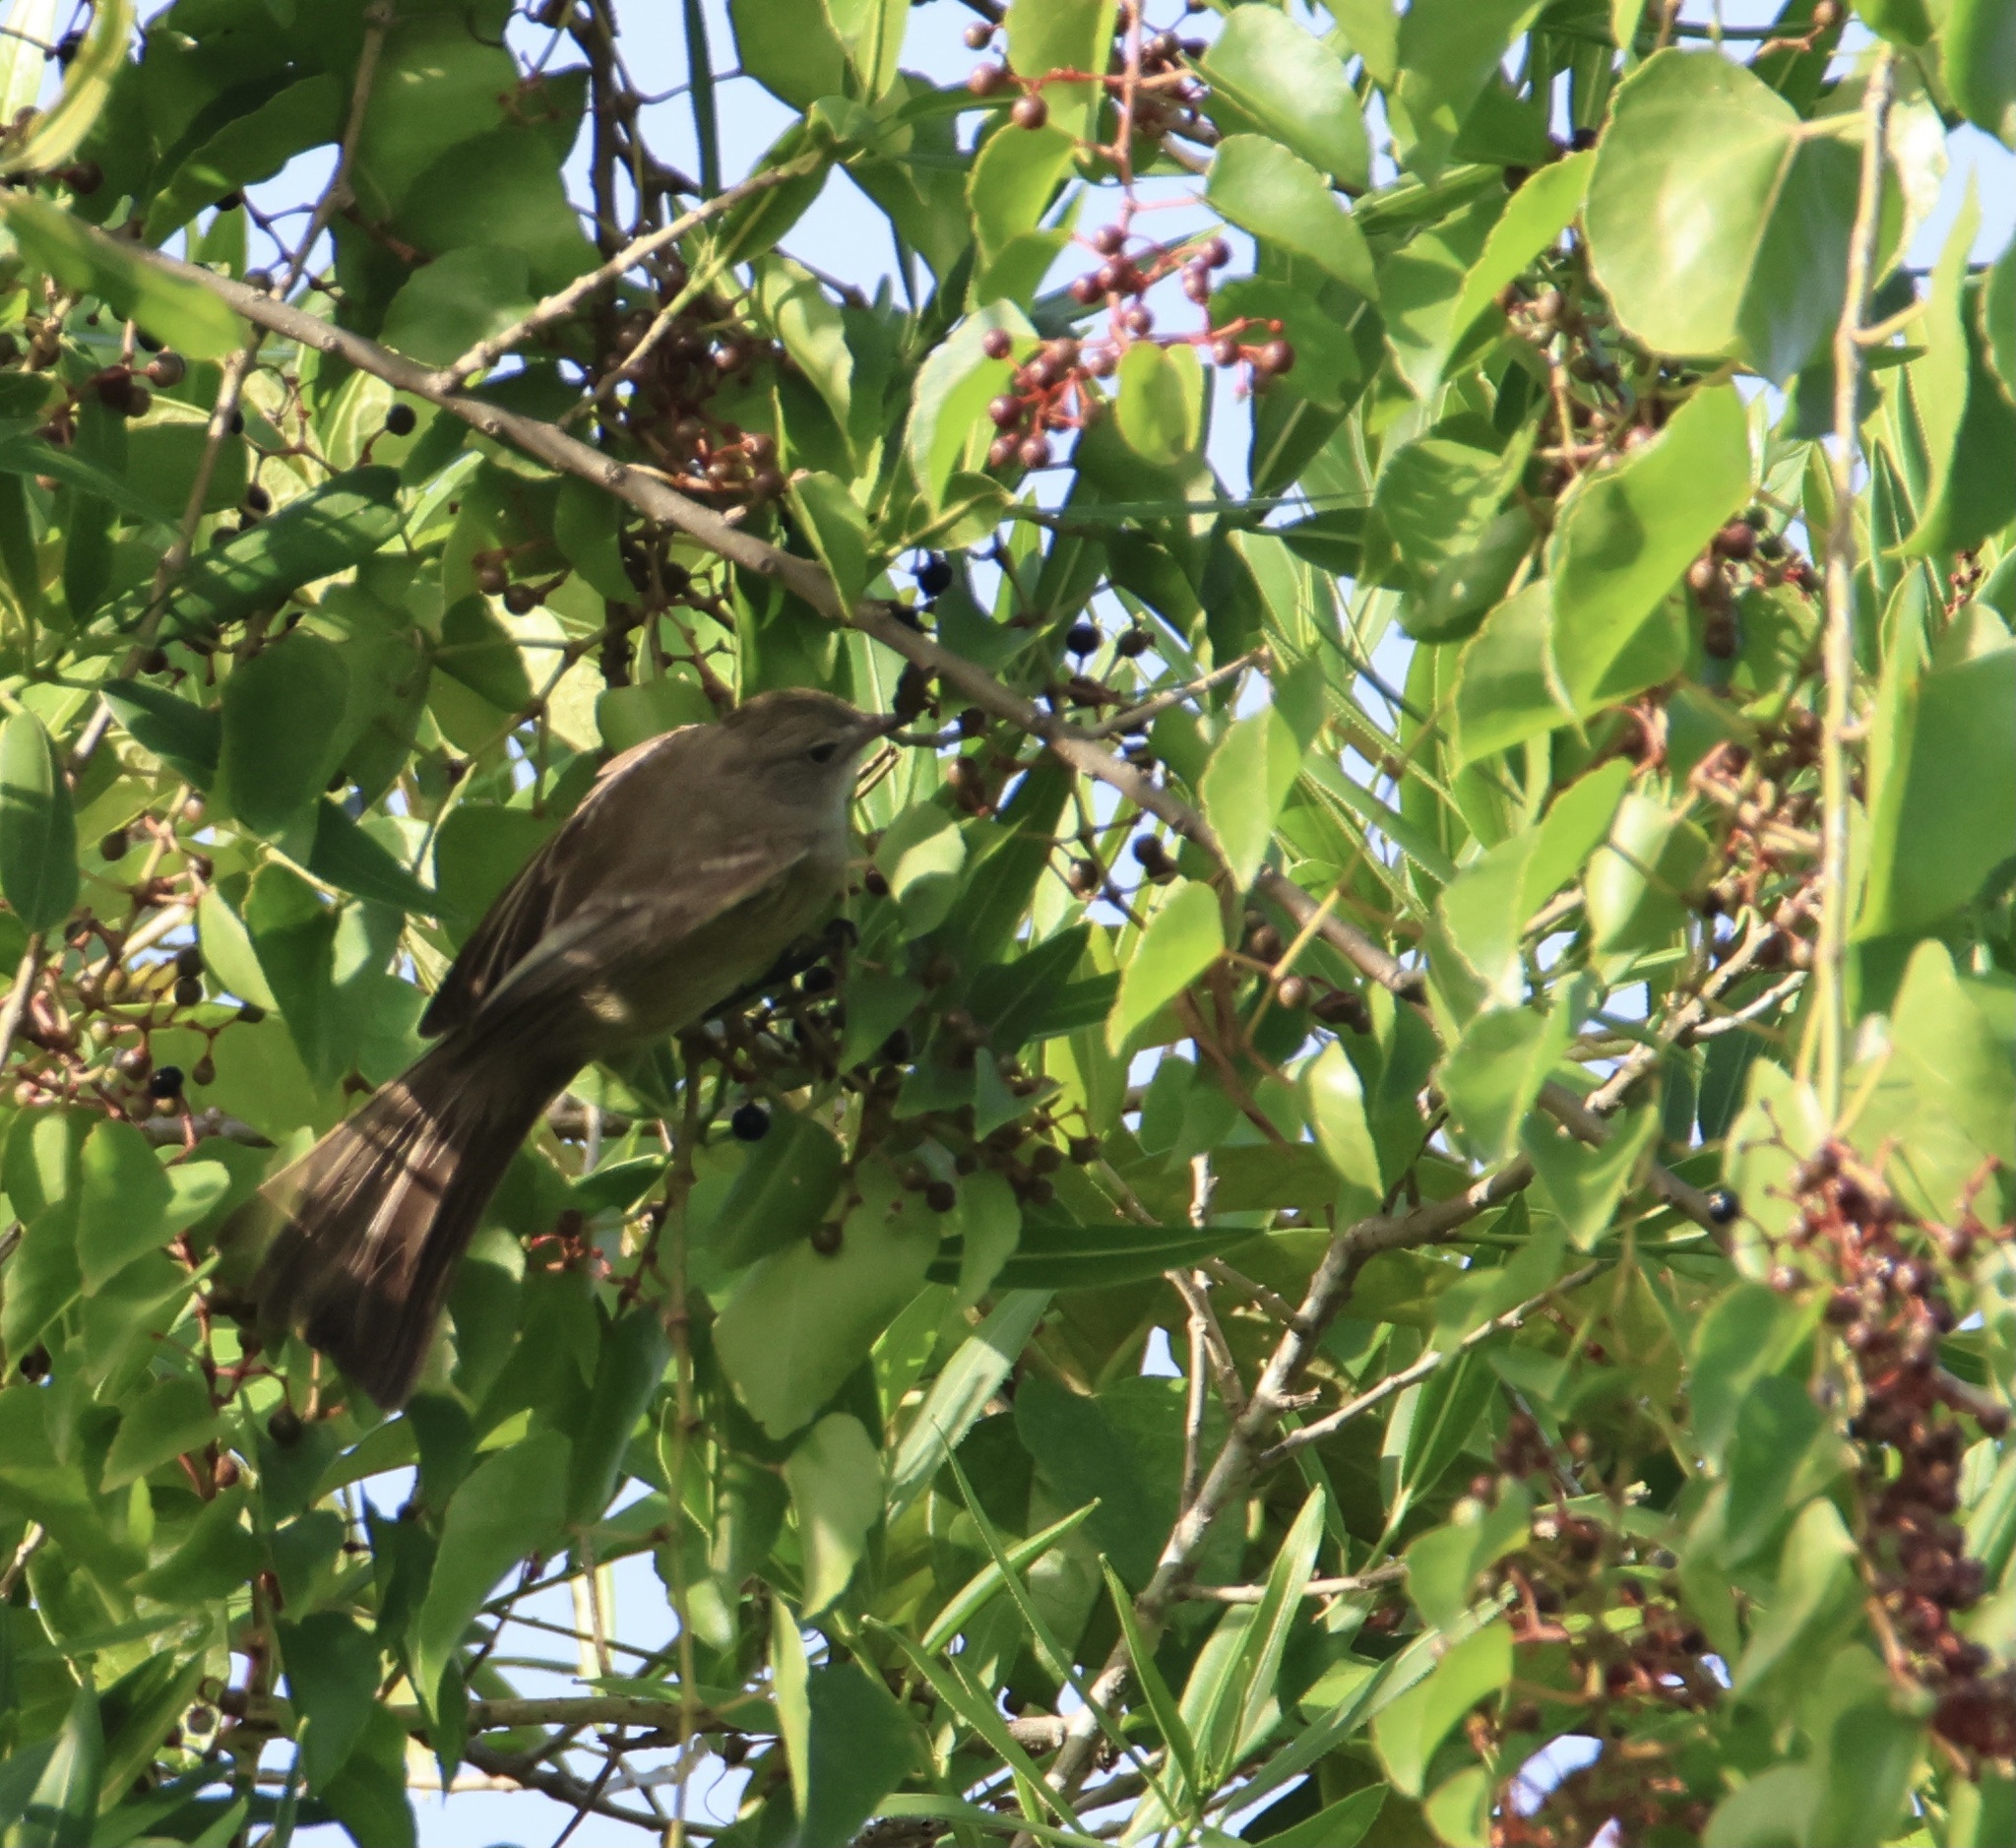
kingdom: Animalia
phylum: Chordata
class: Aves
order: Passeriformes
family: Tyrannidae
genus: Elaenia
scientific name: Elaenia chiriquensis
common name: Lesser elaenia
